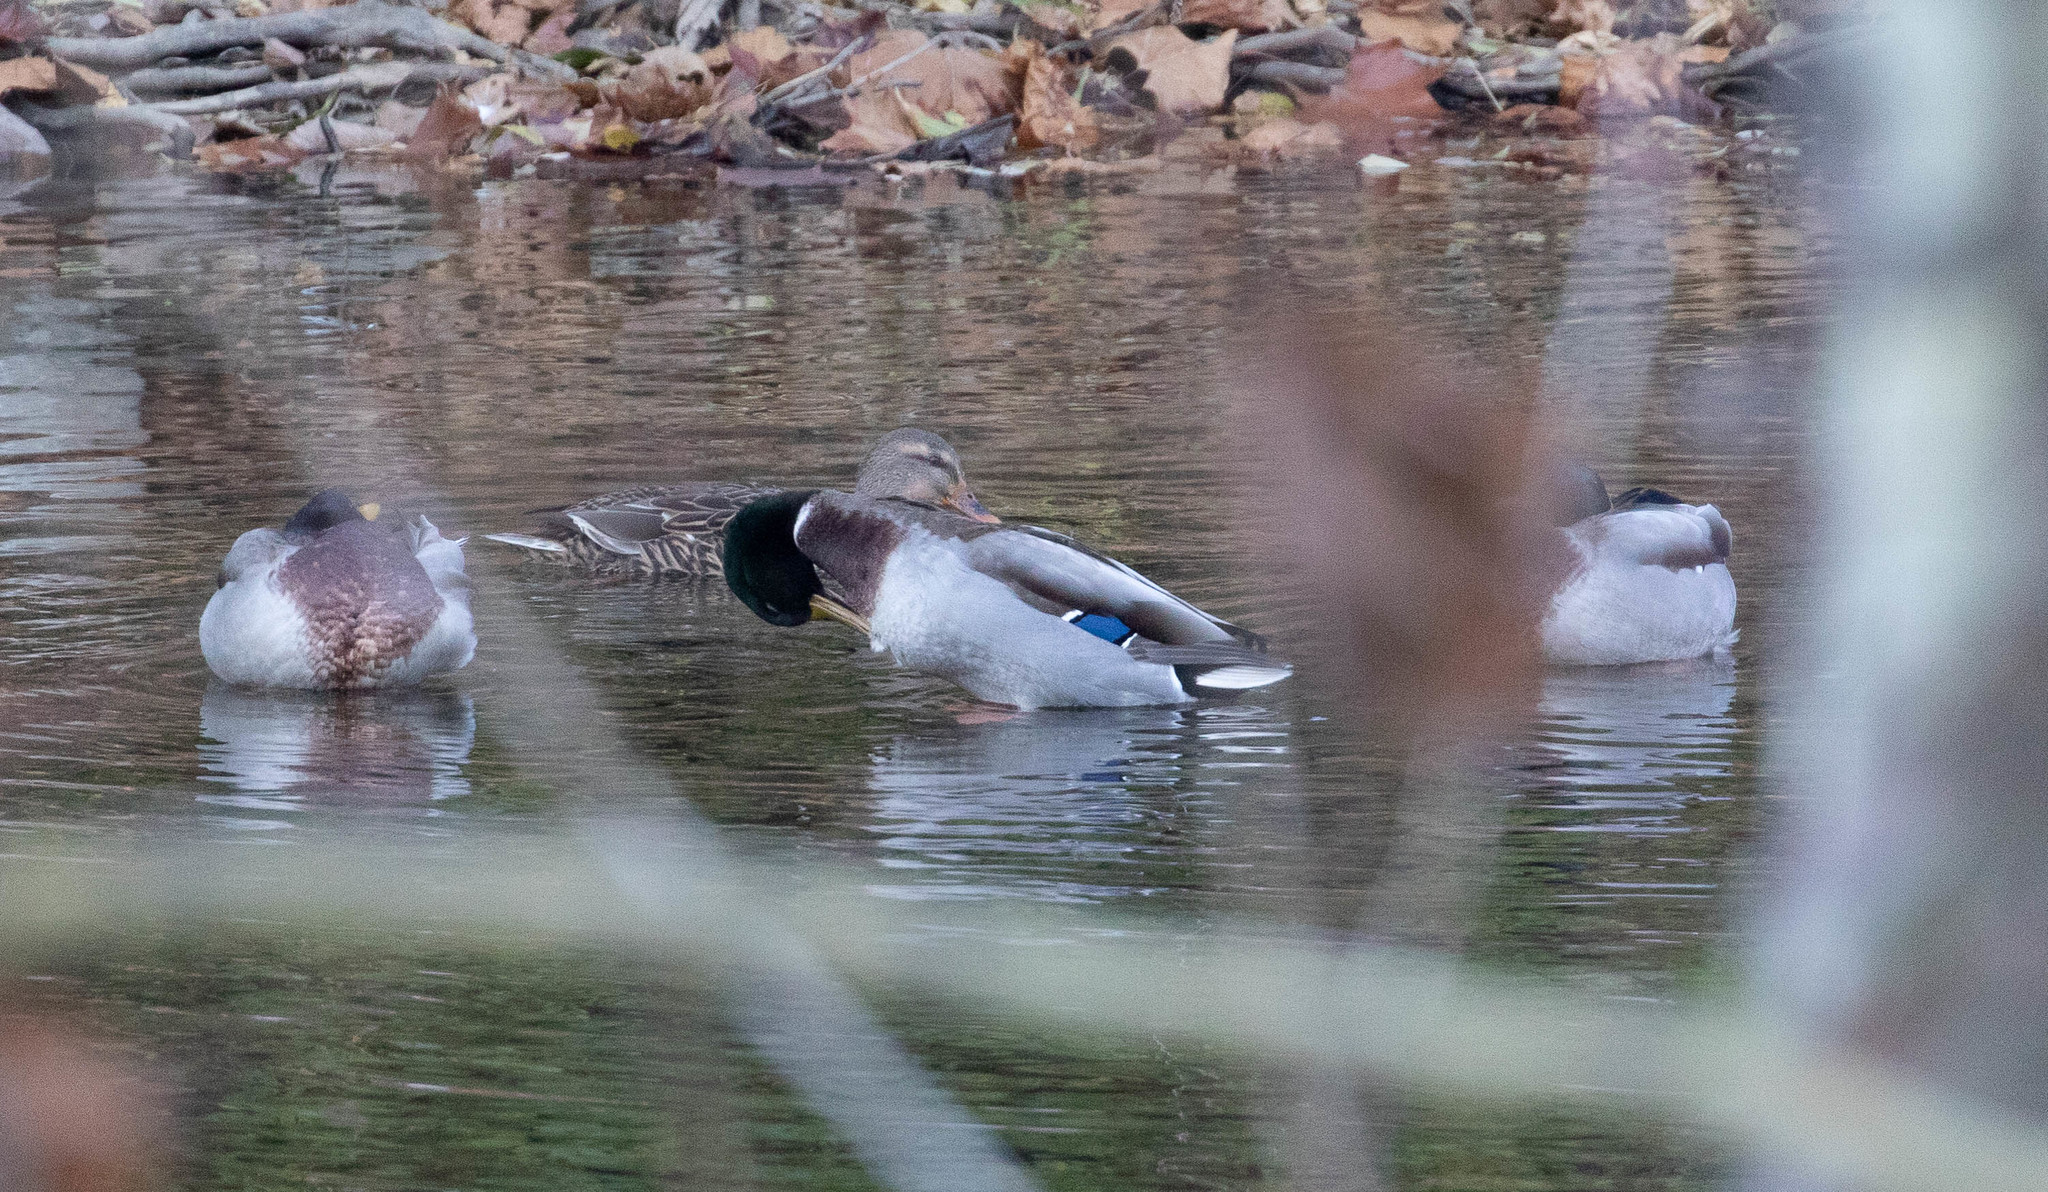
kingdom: Animalia
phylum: Chordata
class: Aves
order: Anseriformes
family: Anatidae
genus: Anas
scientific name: Anas platyrhynchos
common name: Mallard
